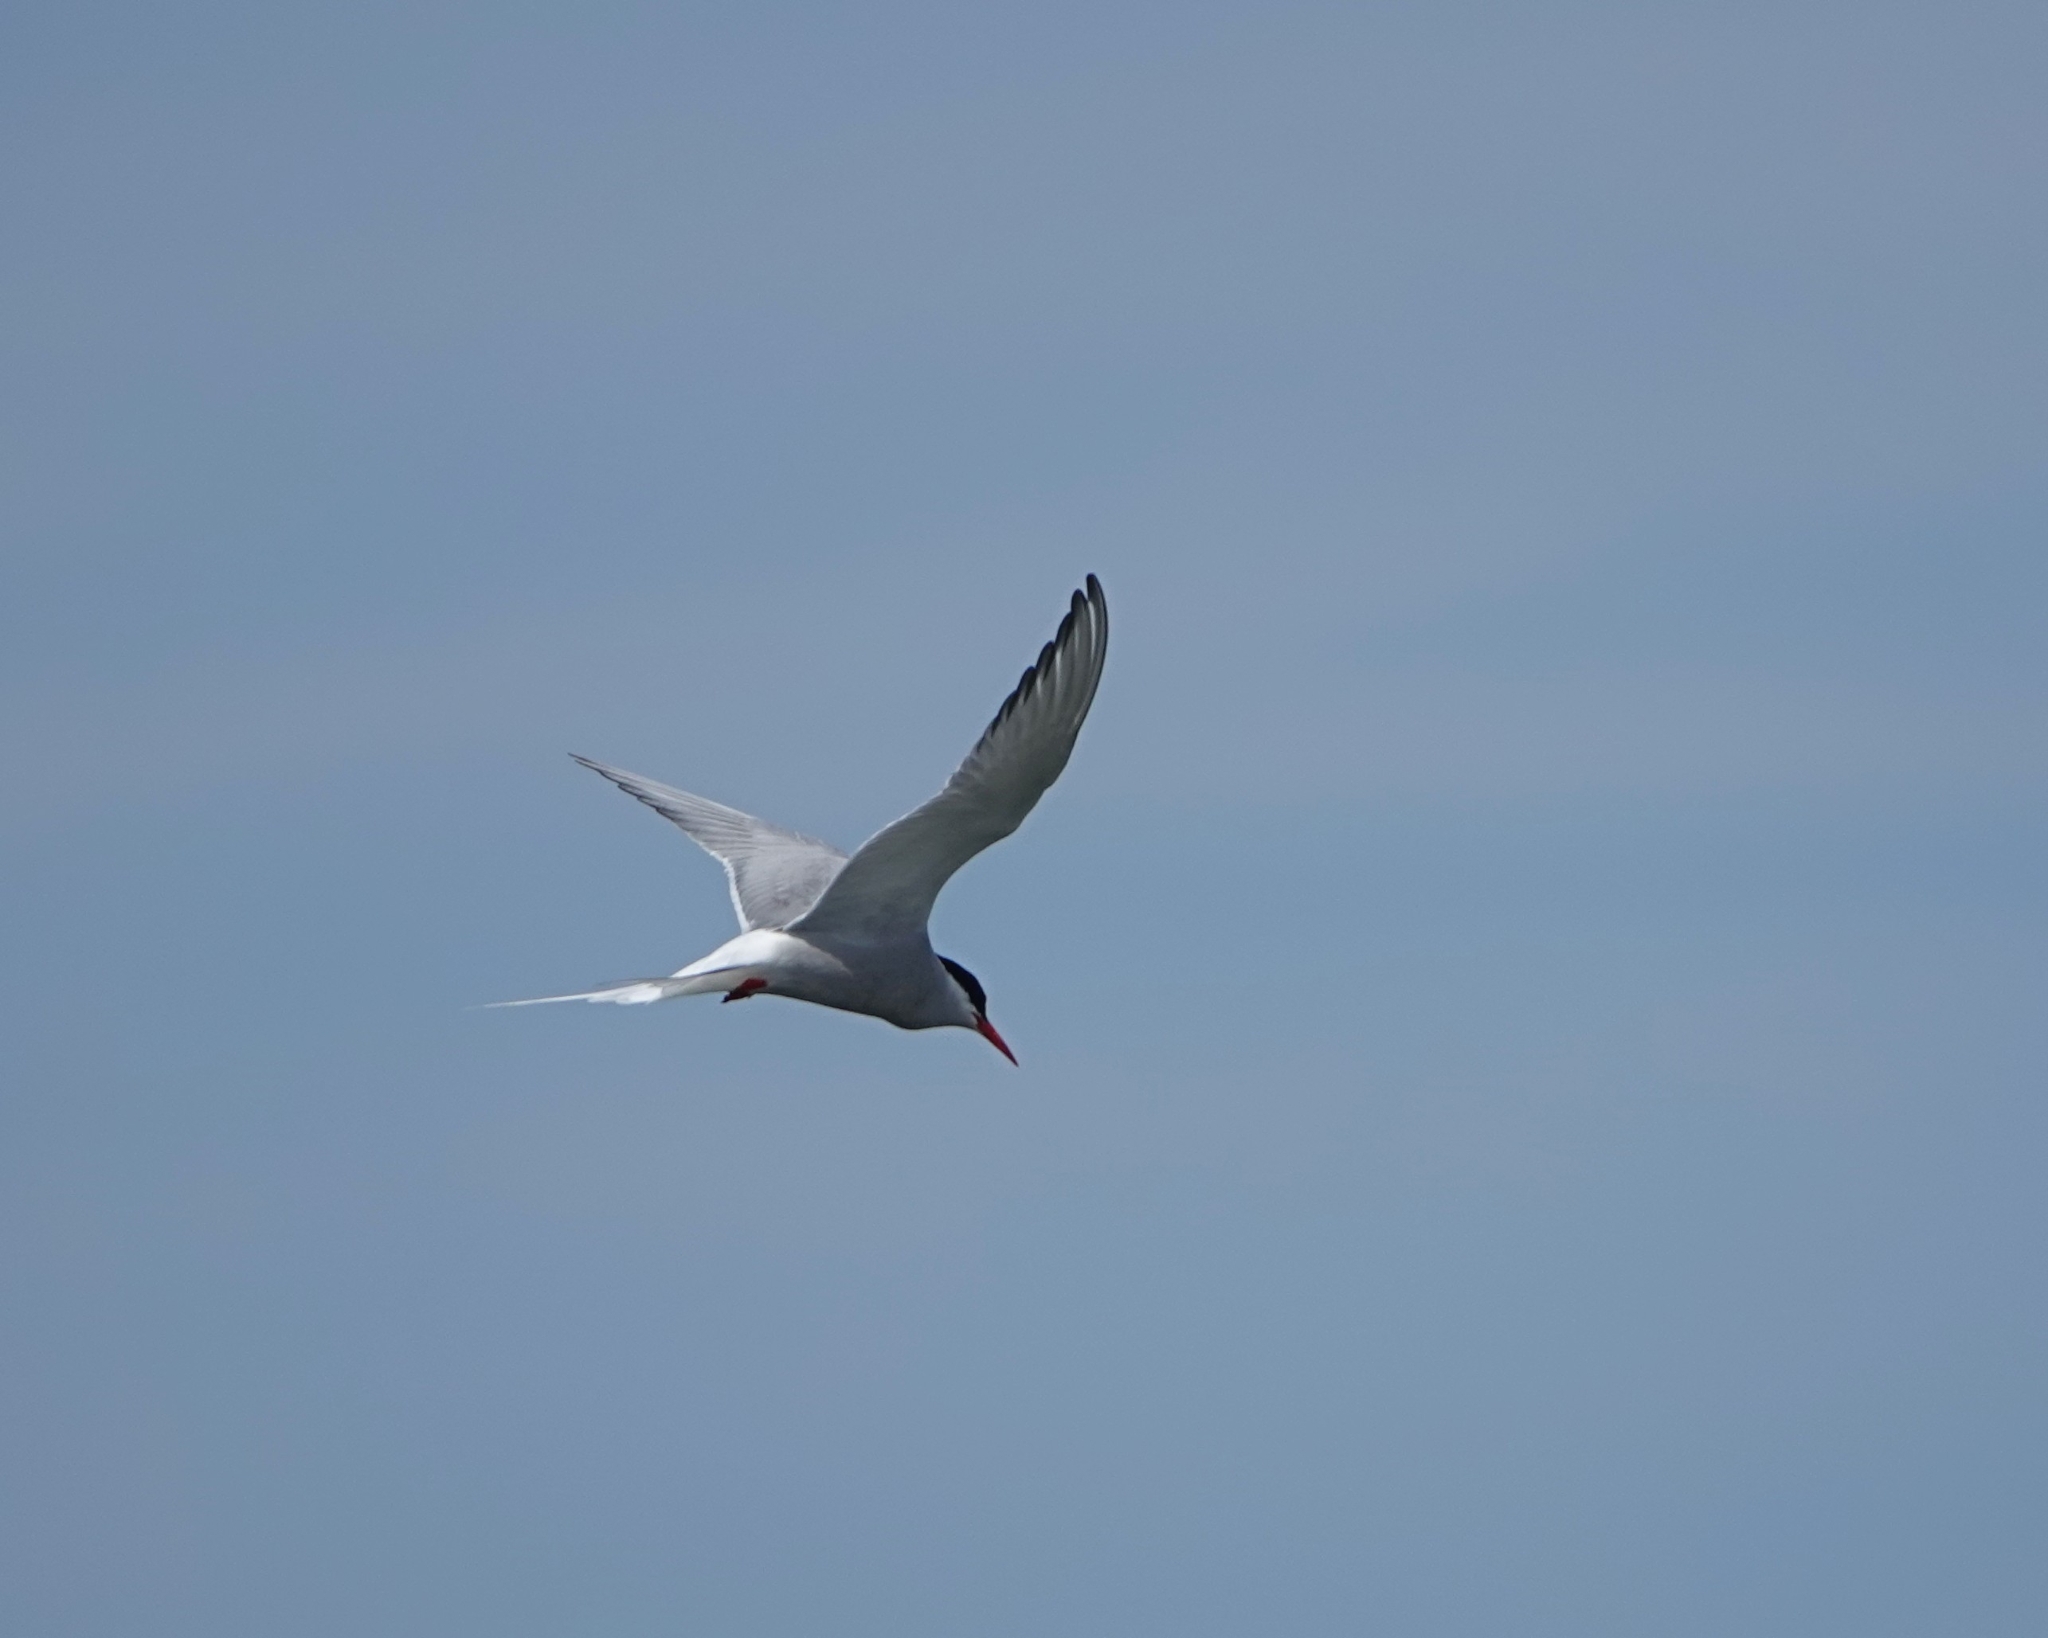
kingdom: Animalia
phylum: Chordata
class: Aves
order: Charadriiformes
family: Laridae
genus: Sterna
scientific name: Sterna paradisaea
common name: Arctic tern
